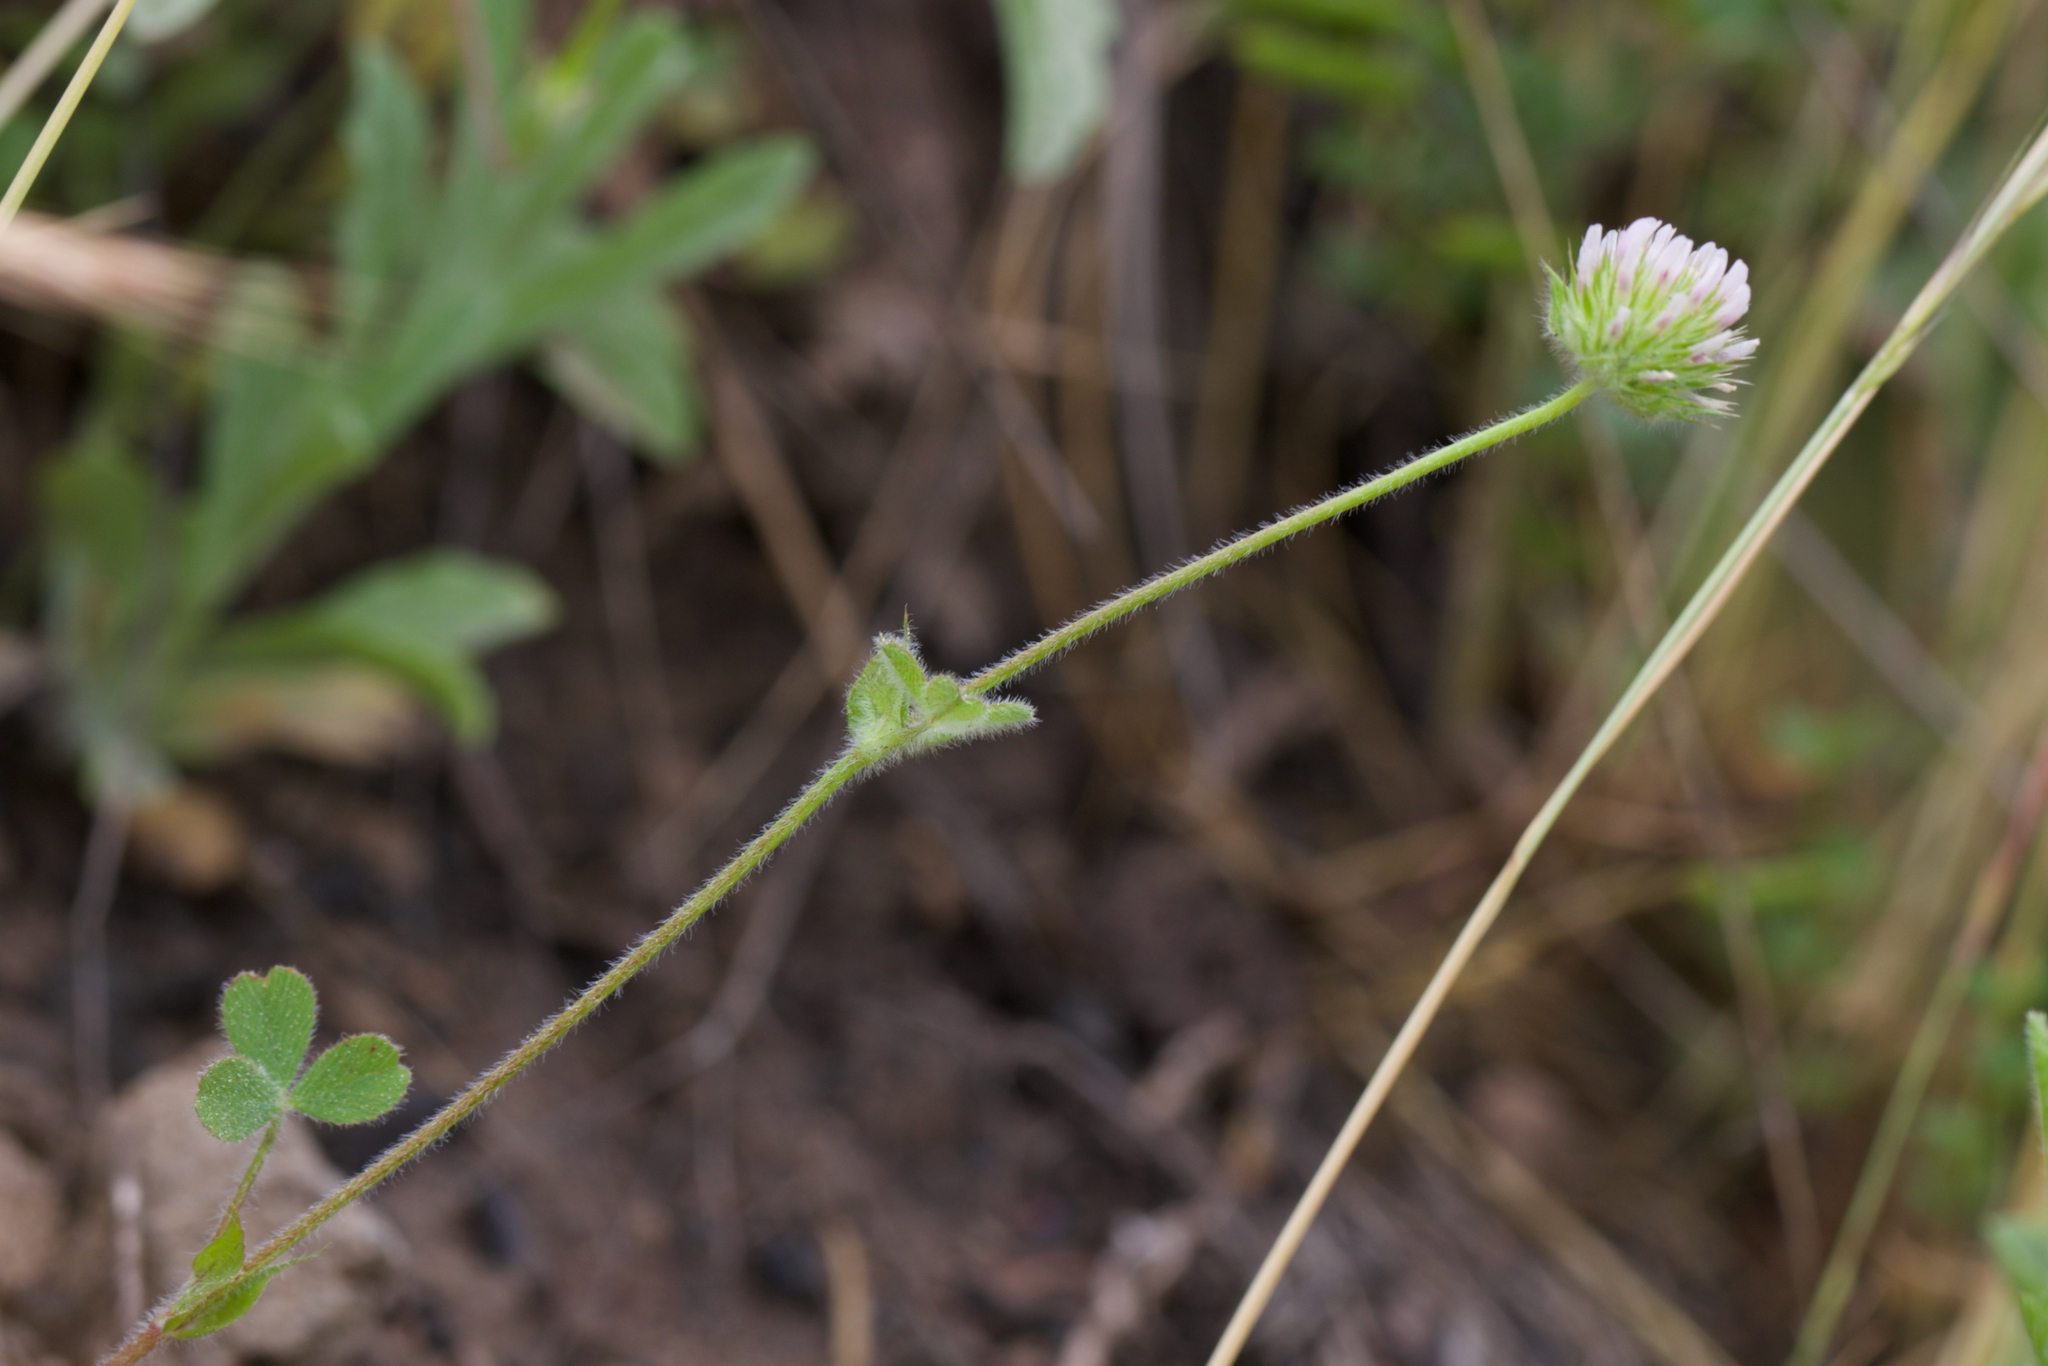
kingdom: Plantae
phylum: Tracheophyta
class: Magnoliopsida
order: Fabales
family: Fabaceae
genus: Trifolium
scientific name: Trifolium microcephalum
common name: Maiden clover
